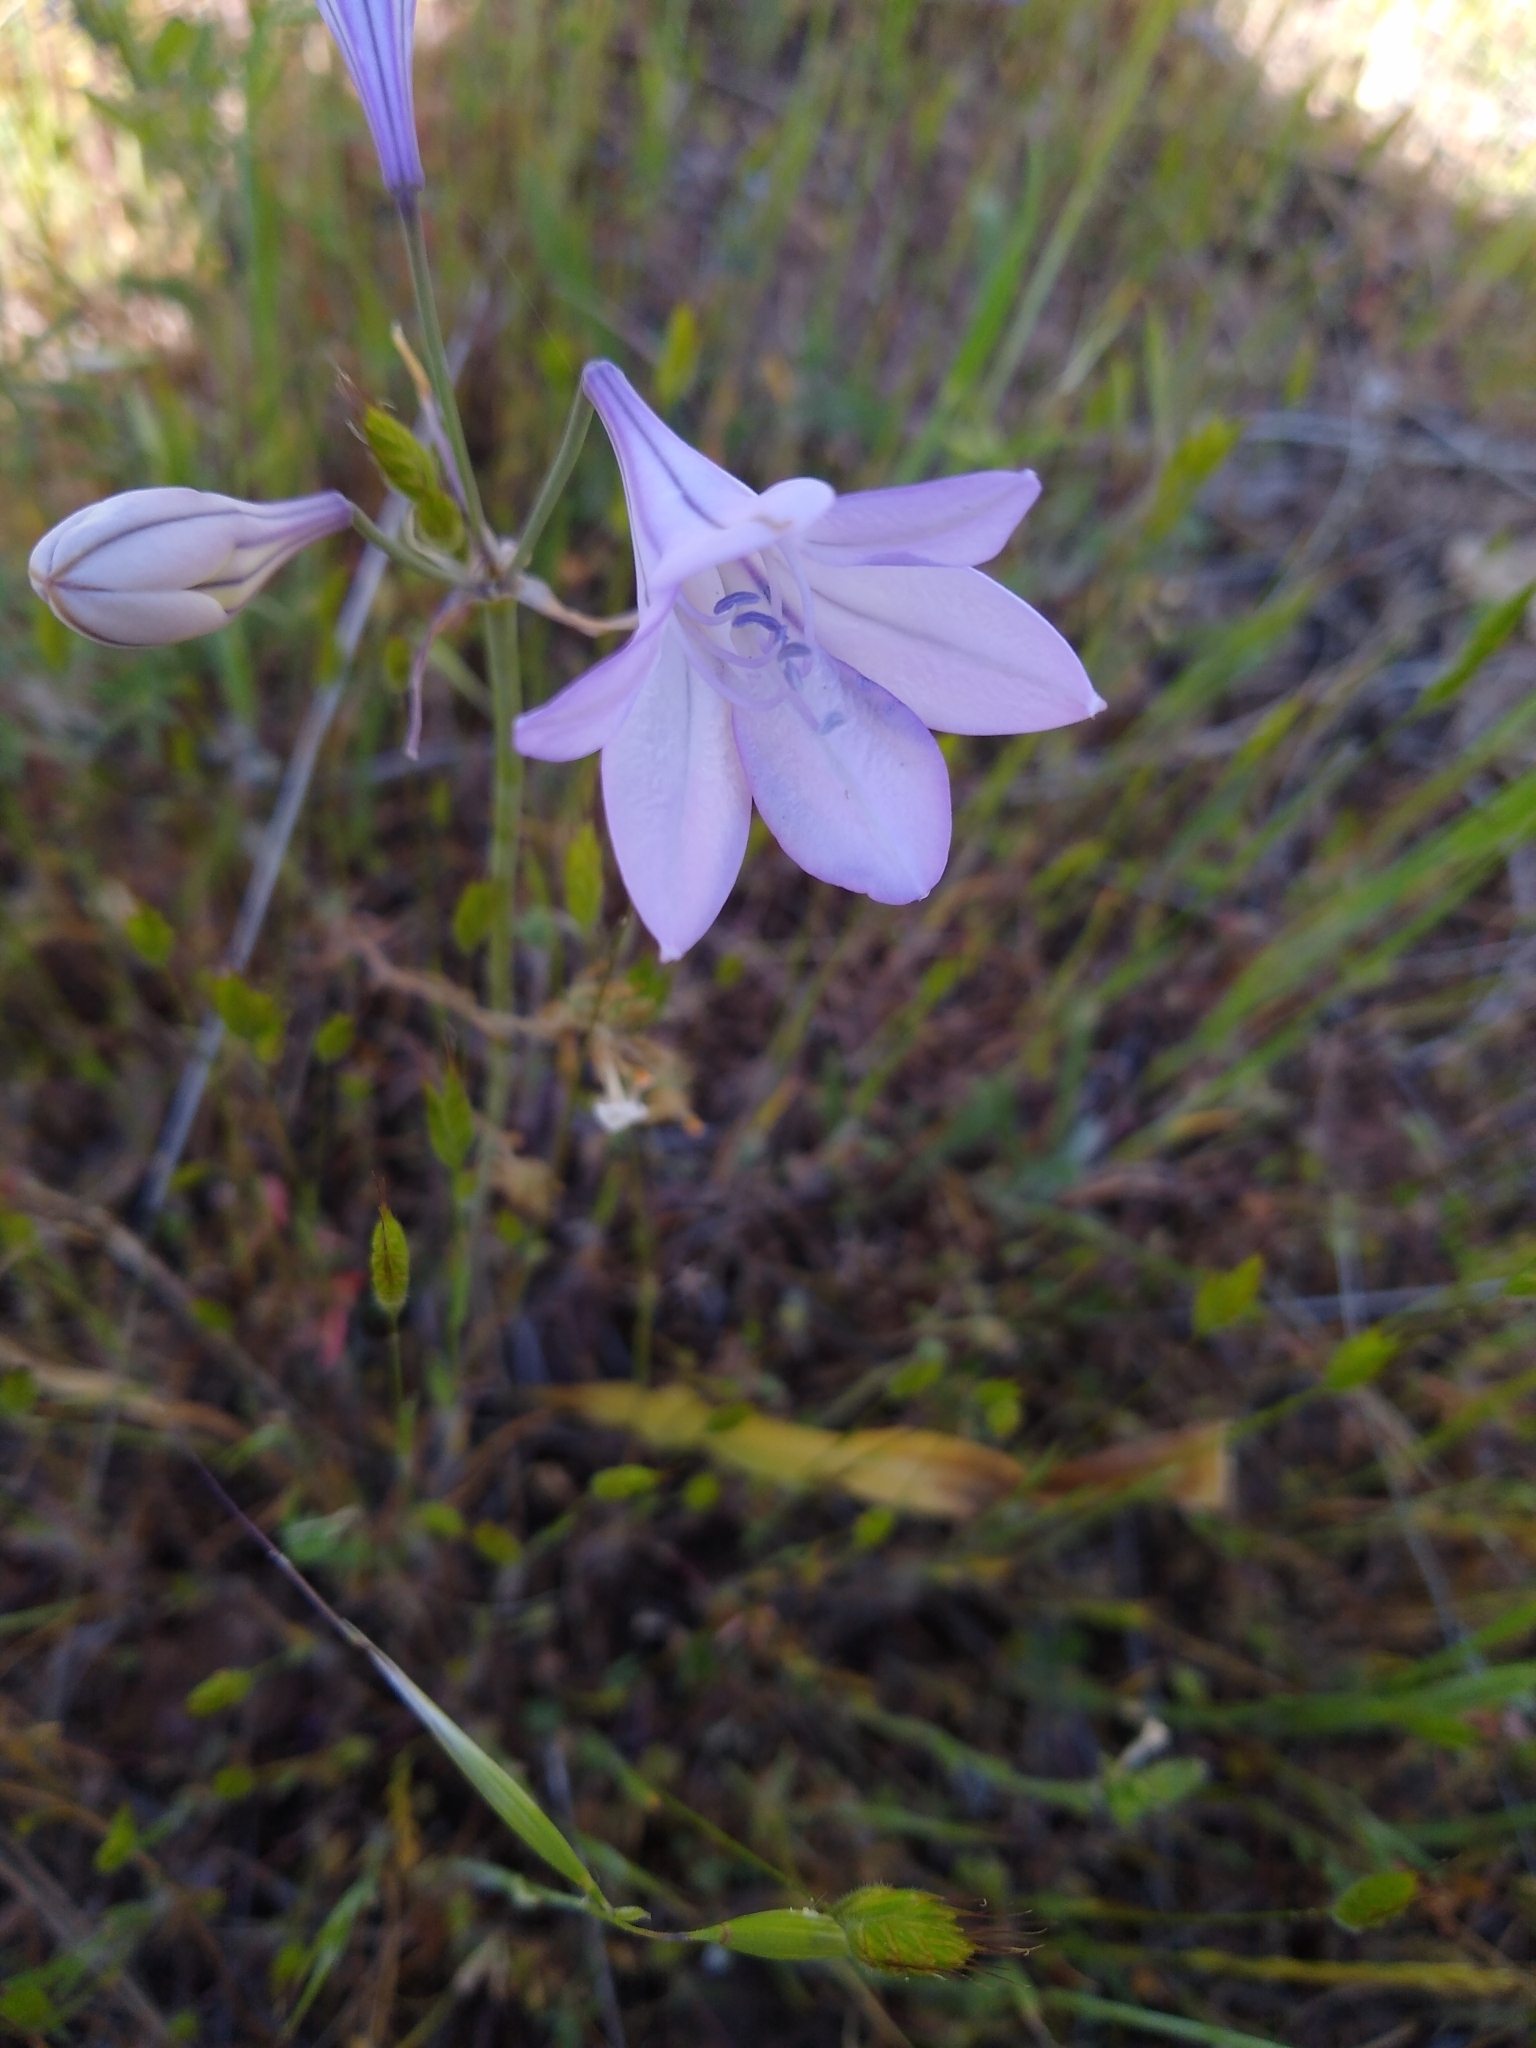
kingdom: Plantae
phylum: Tracheophyta
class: Liliopsida
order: Asparagales
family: Asparagaceae
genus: Triteleia
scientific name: Triteleia laxa
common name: Triplet-lily
